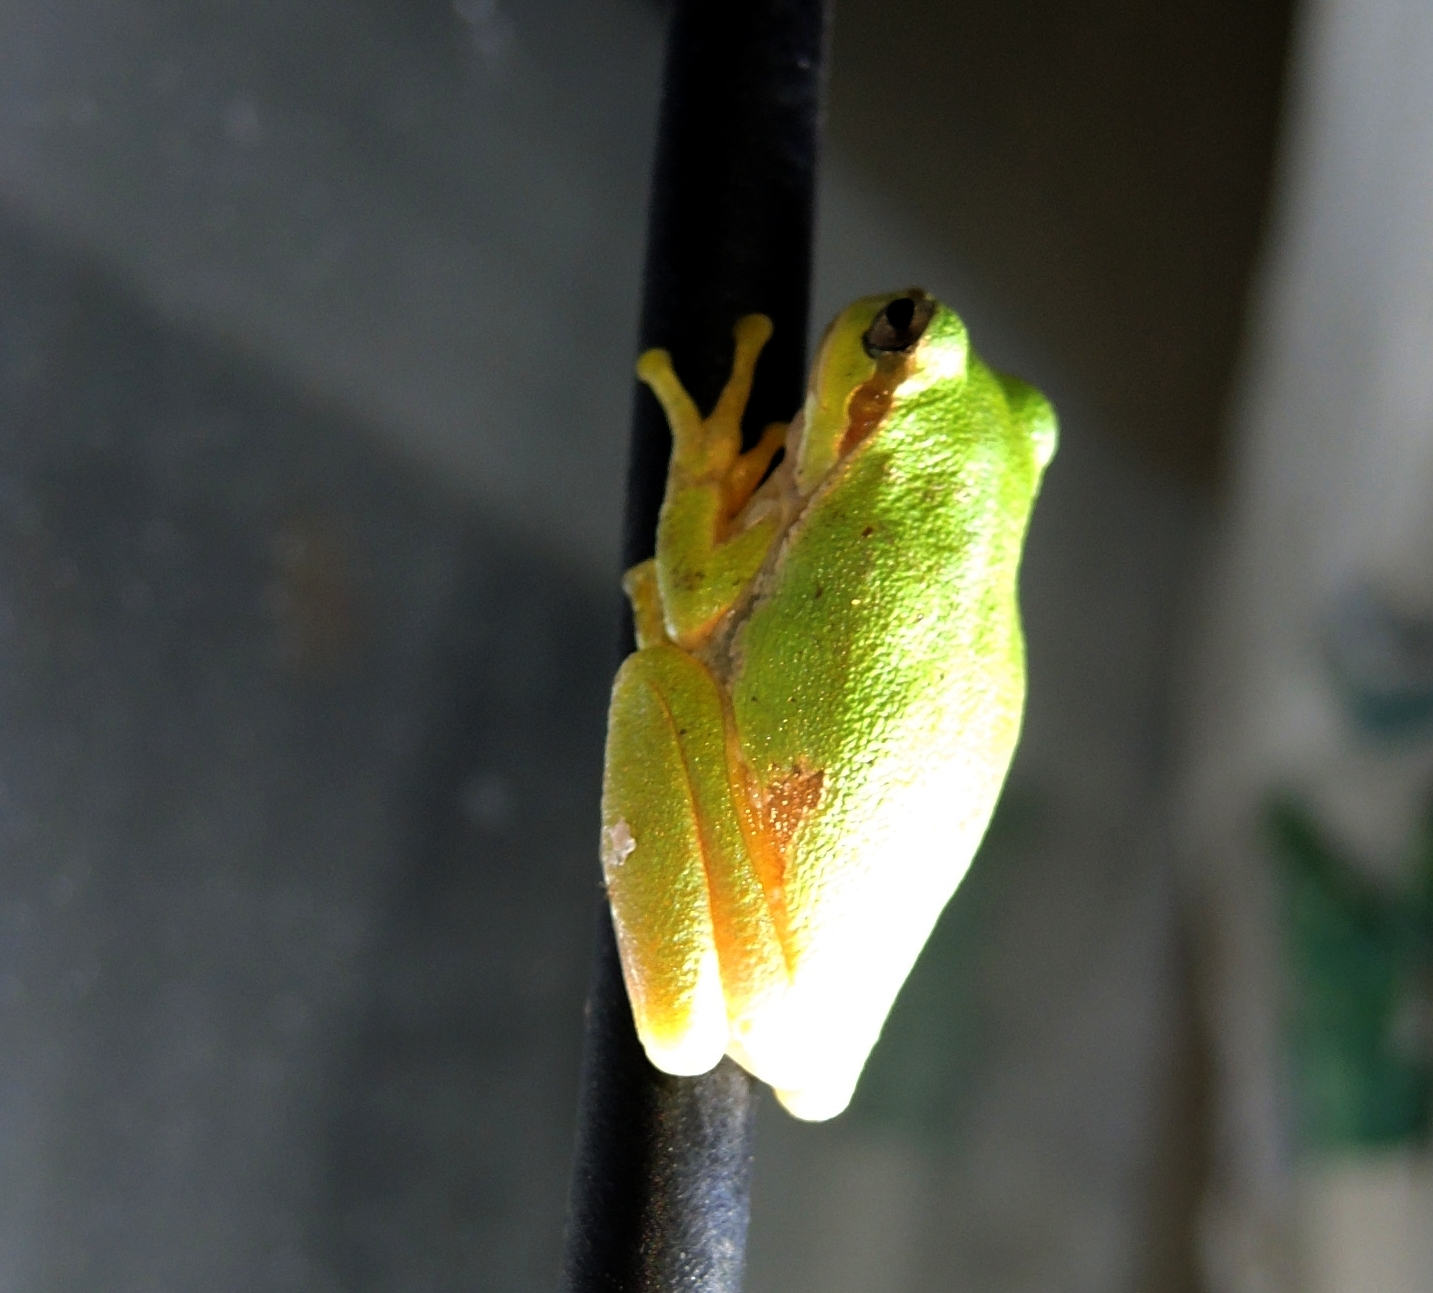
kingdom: Animalia
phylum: Chordata
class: Amphibia
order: Anura
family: Hylidae
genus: Hyla
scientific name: Hyla orientalis
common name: Caucasian treefrog
